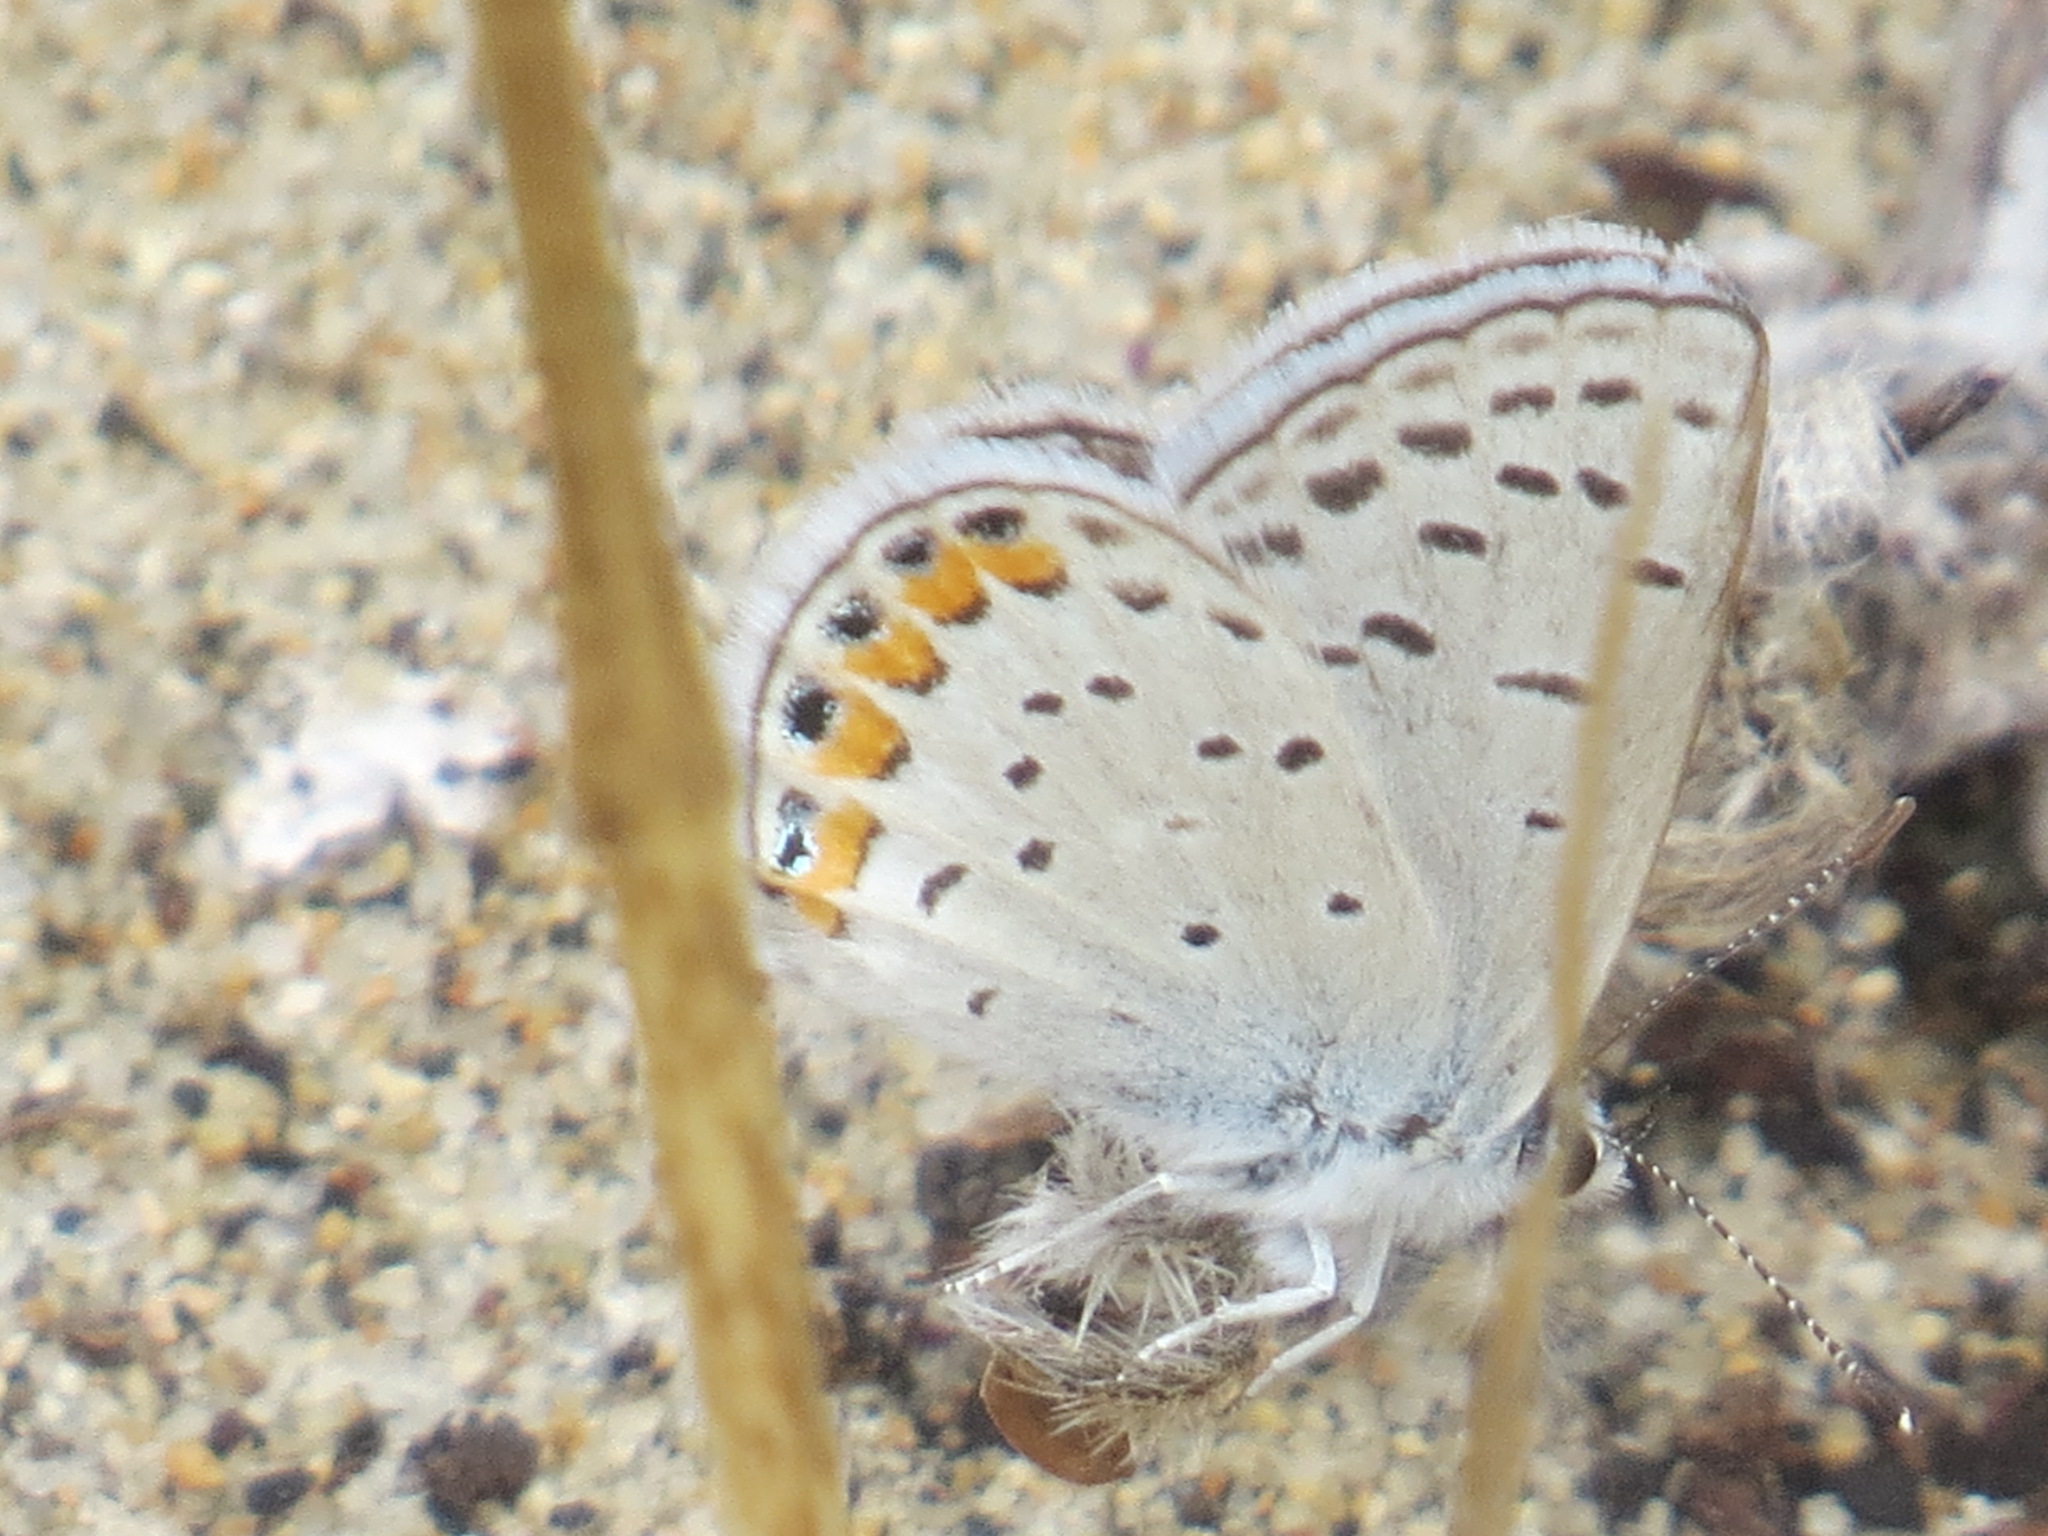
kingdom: Animalia
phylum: Arthropoda
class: Insecta
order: Lepidoptera
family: Lycaenidae
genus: Icaricia
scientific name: Icaricia acmon
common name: Acmon blue
